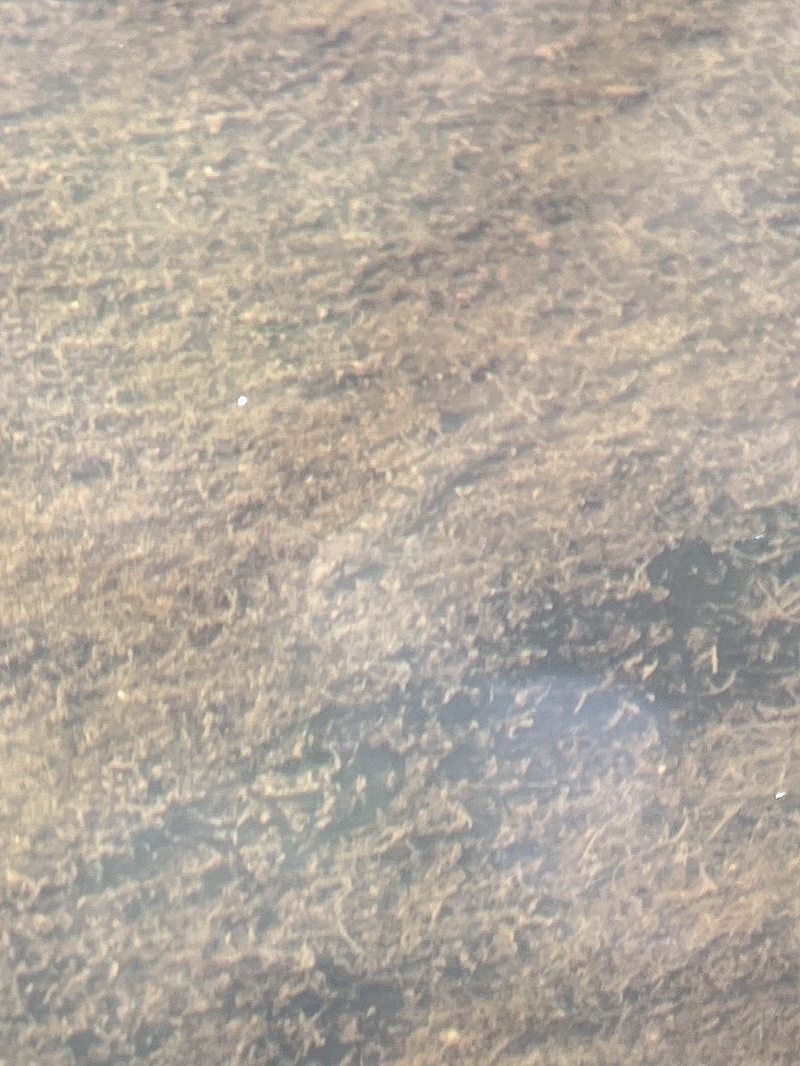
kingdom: Animalia
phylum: Chordata
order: Perciformes
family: Percidae
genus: Etheostoma
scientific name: Etheostoma olmstedi
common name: Tessellated darter
